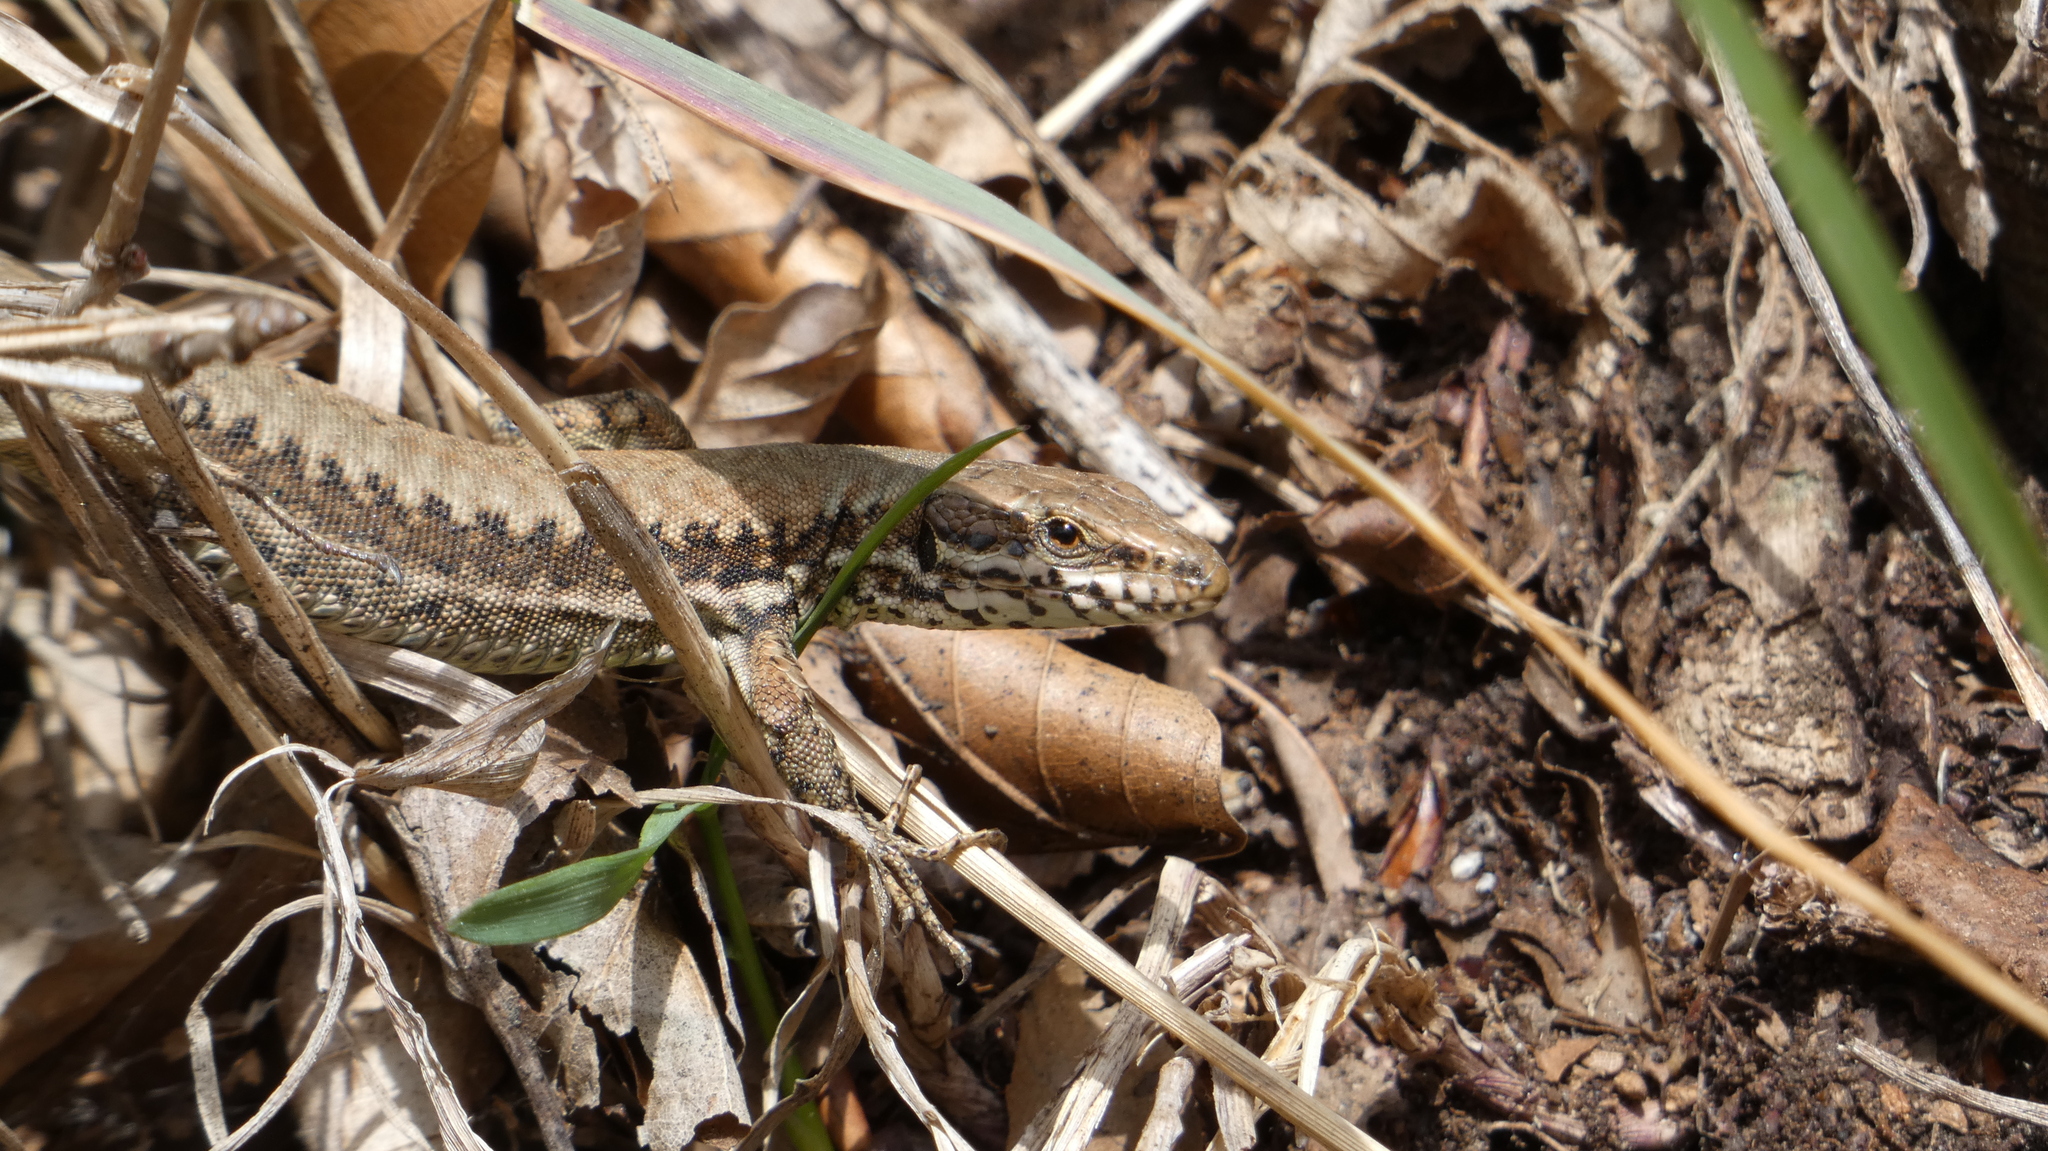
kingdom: Animalia
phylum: Chordata
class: Squamata
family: Lacertidae
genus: Podarcis
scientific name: Podarcis muralis
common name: Common wall lizard
